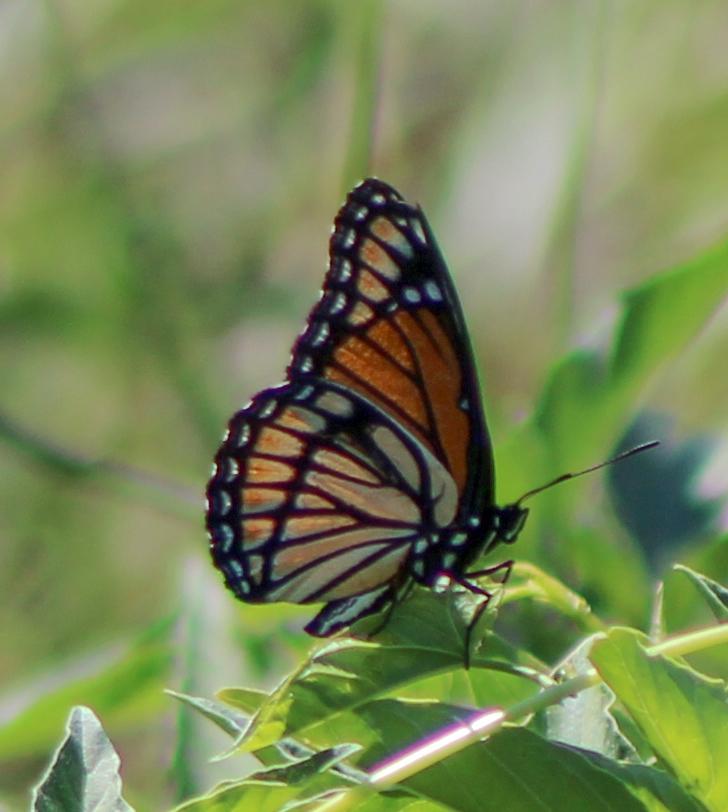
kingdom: Animalia
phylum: Arthropoda
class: Insecta
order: Lepidoptera
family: Nymphalidae
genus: Limenitis
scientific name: Limenitis archippus
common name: Viceroy
